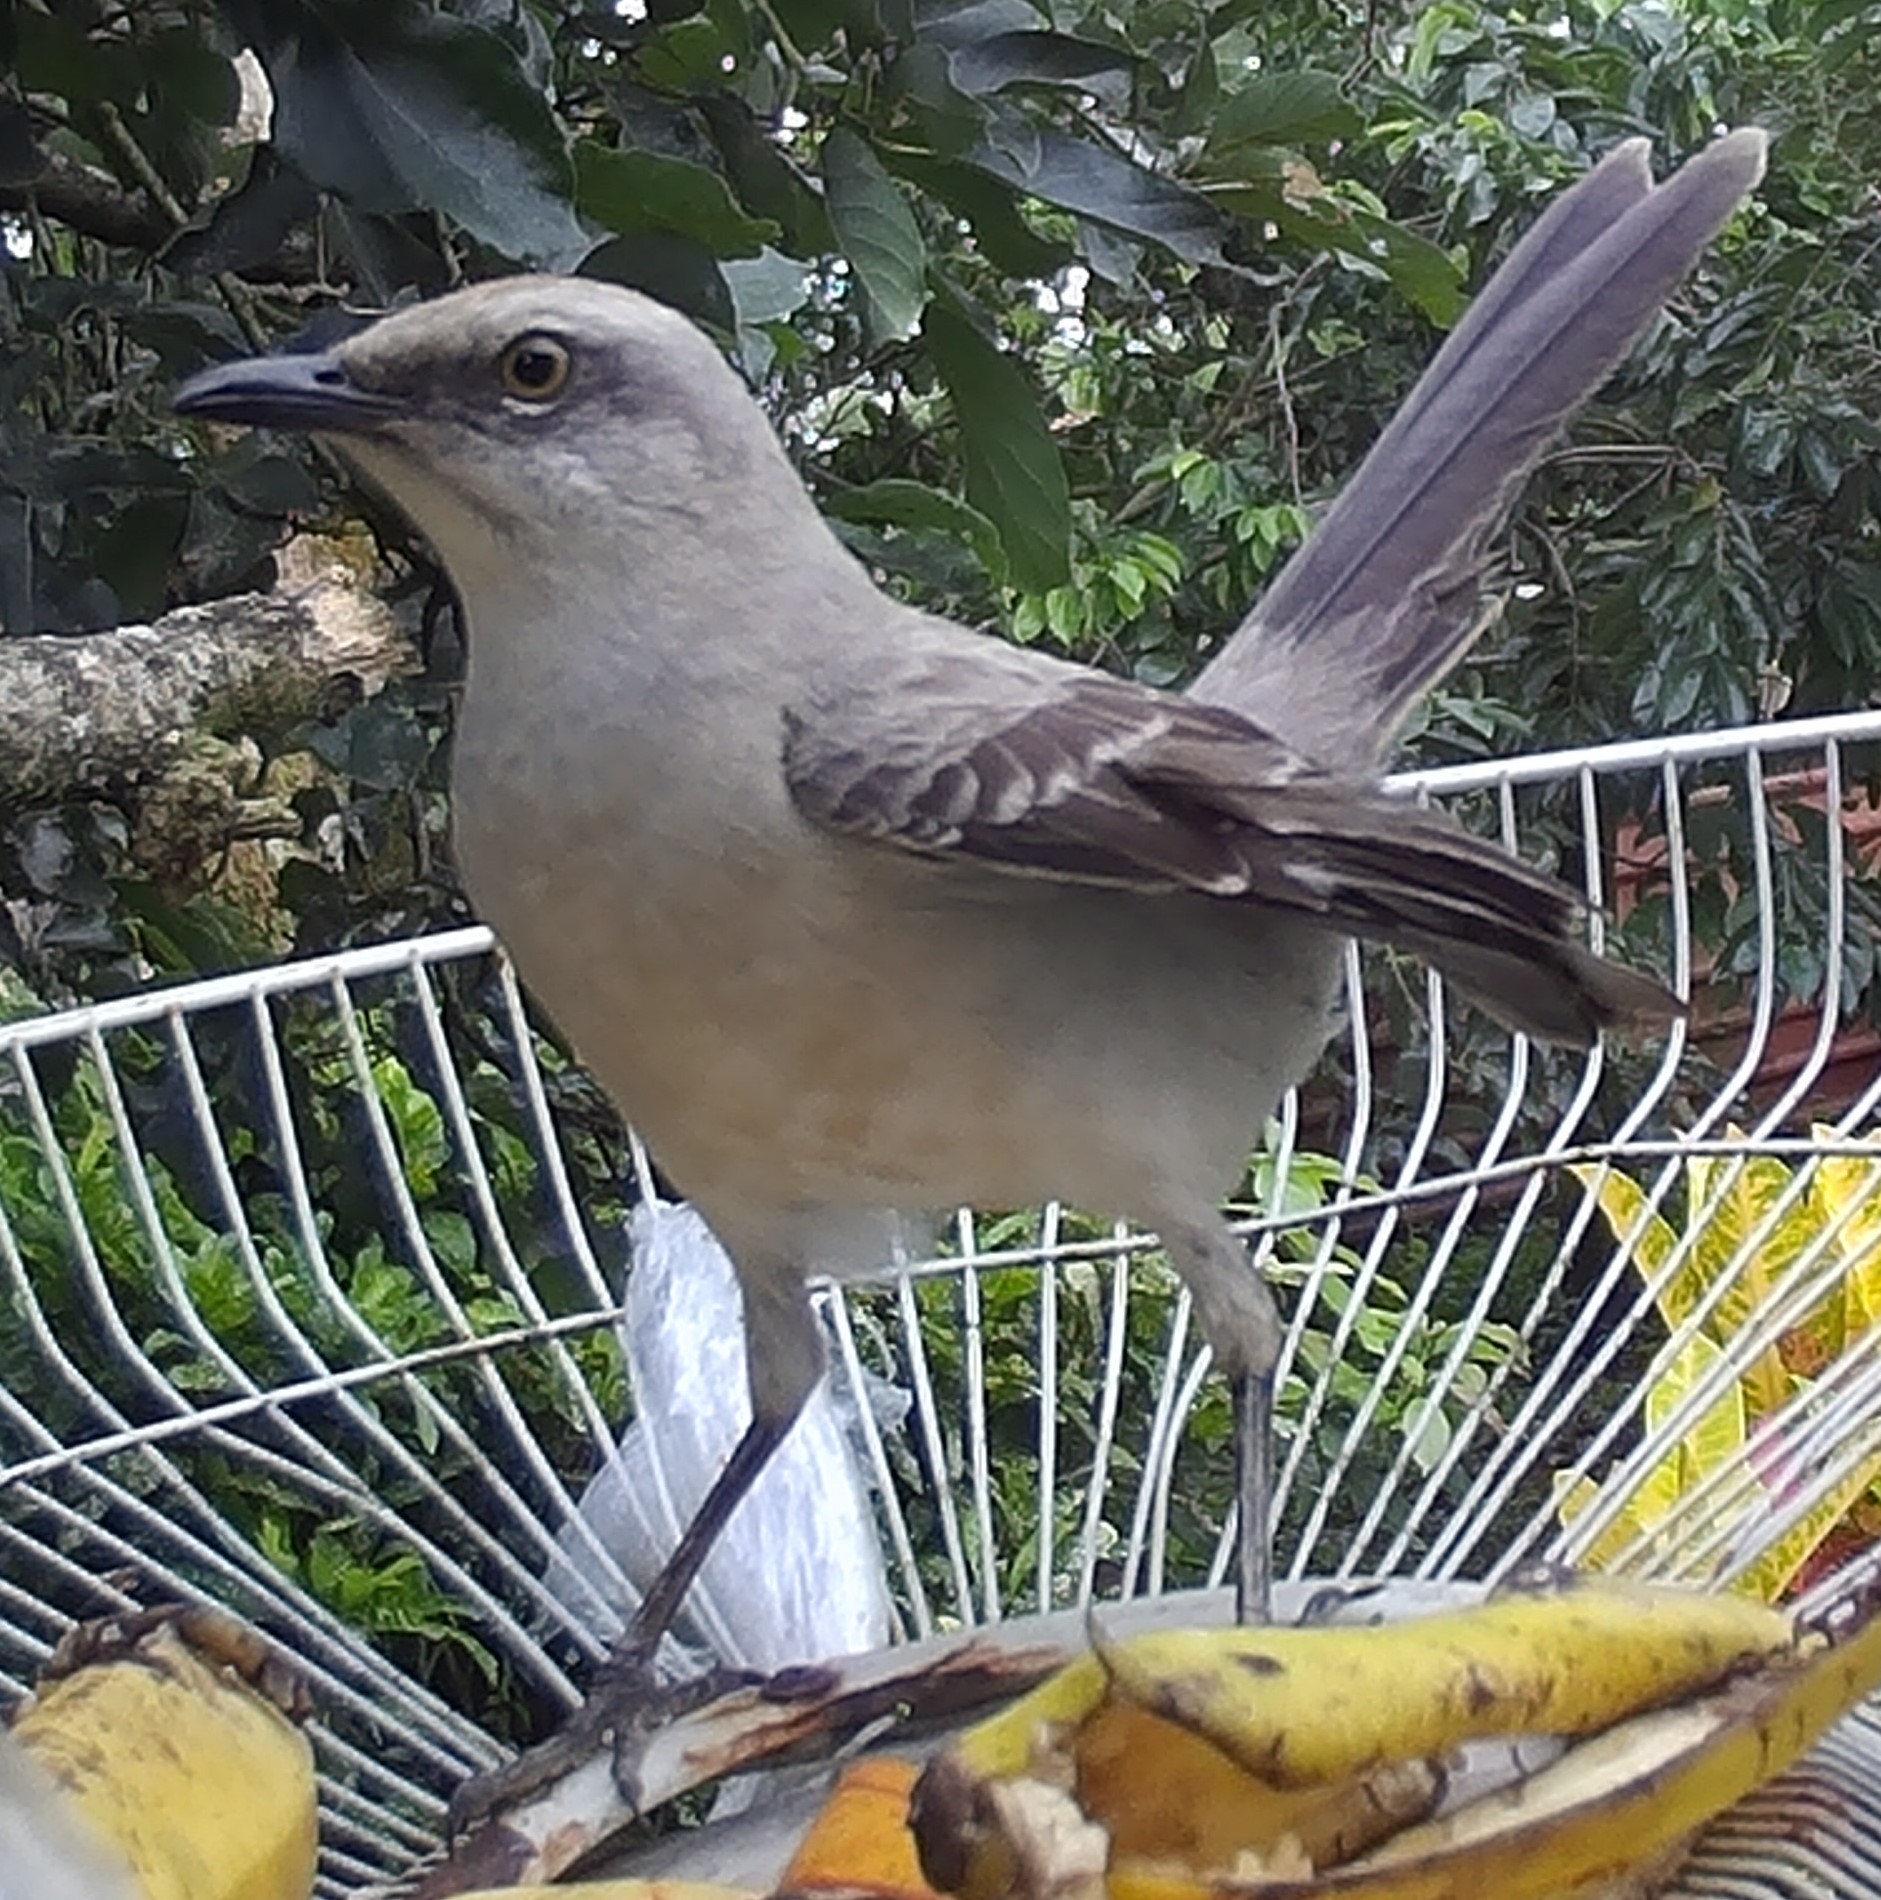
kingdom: Animalia
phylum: Chordata
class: Aves
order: Passeriformes
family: Mimidae
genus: Mimus
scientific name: Mimus gilvus
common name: Tropical mockingbird
